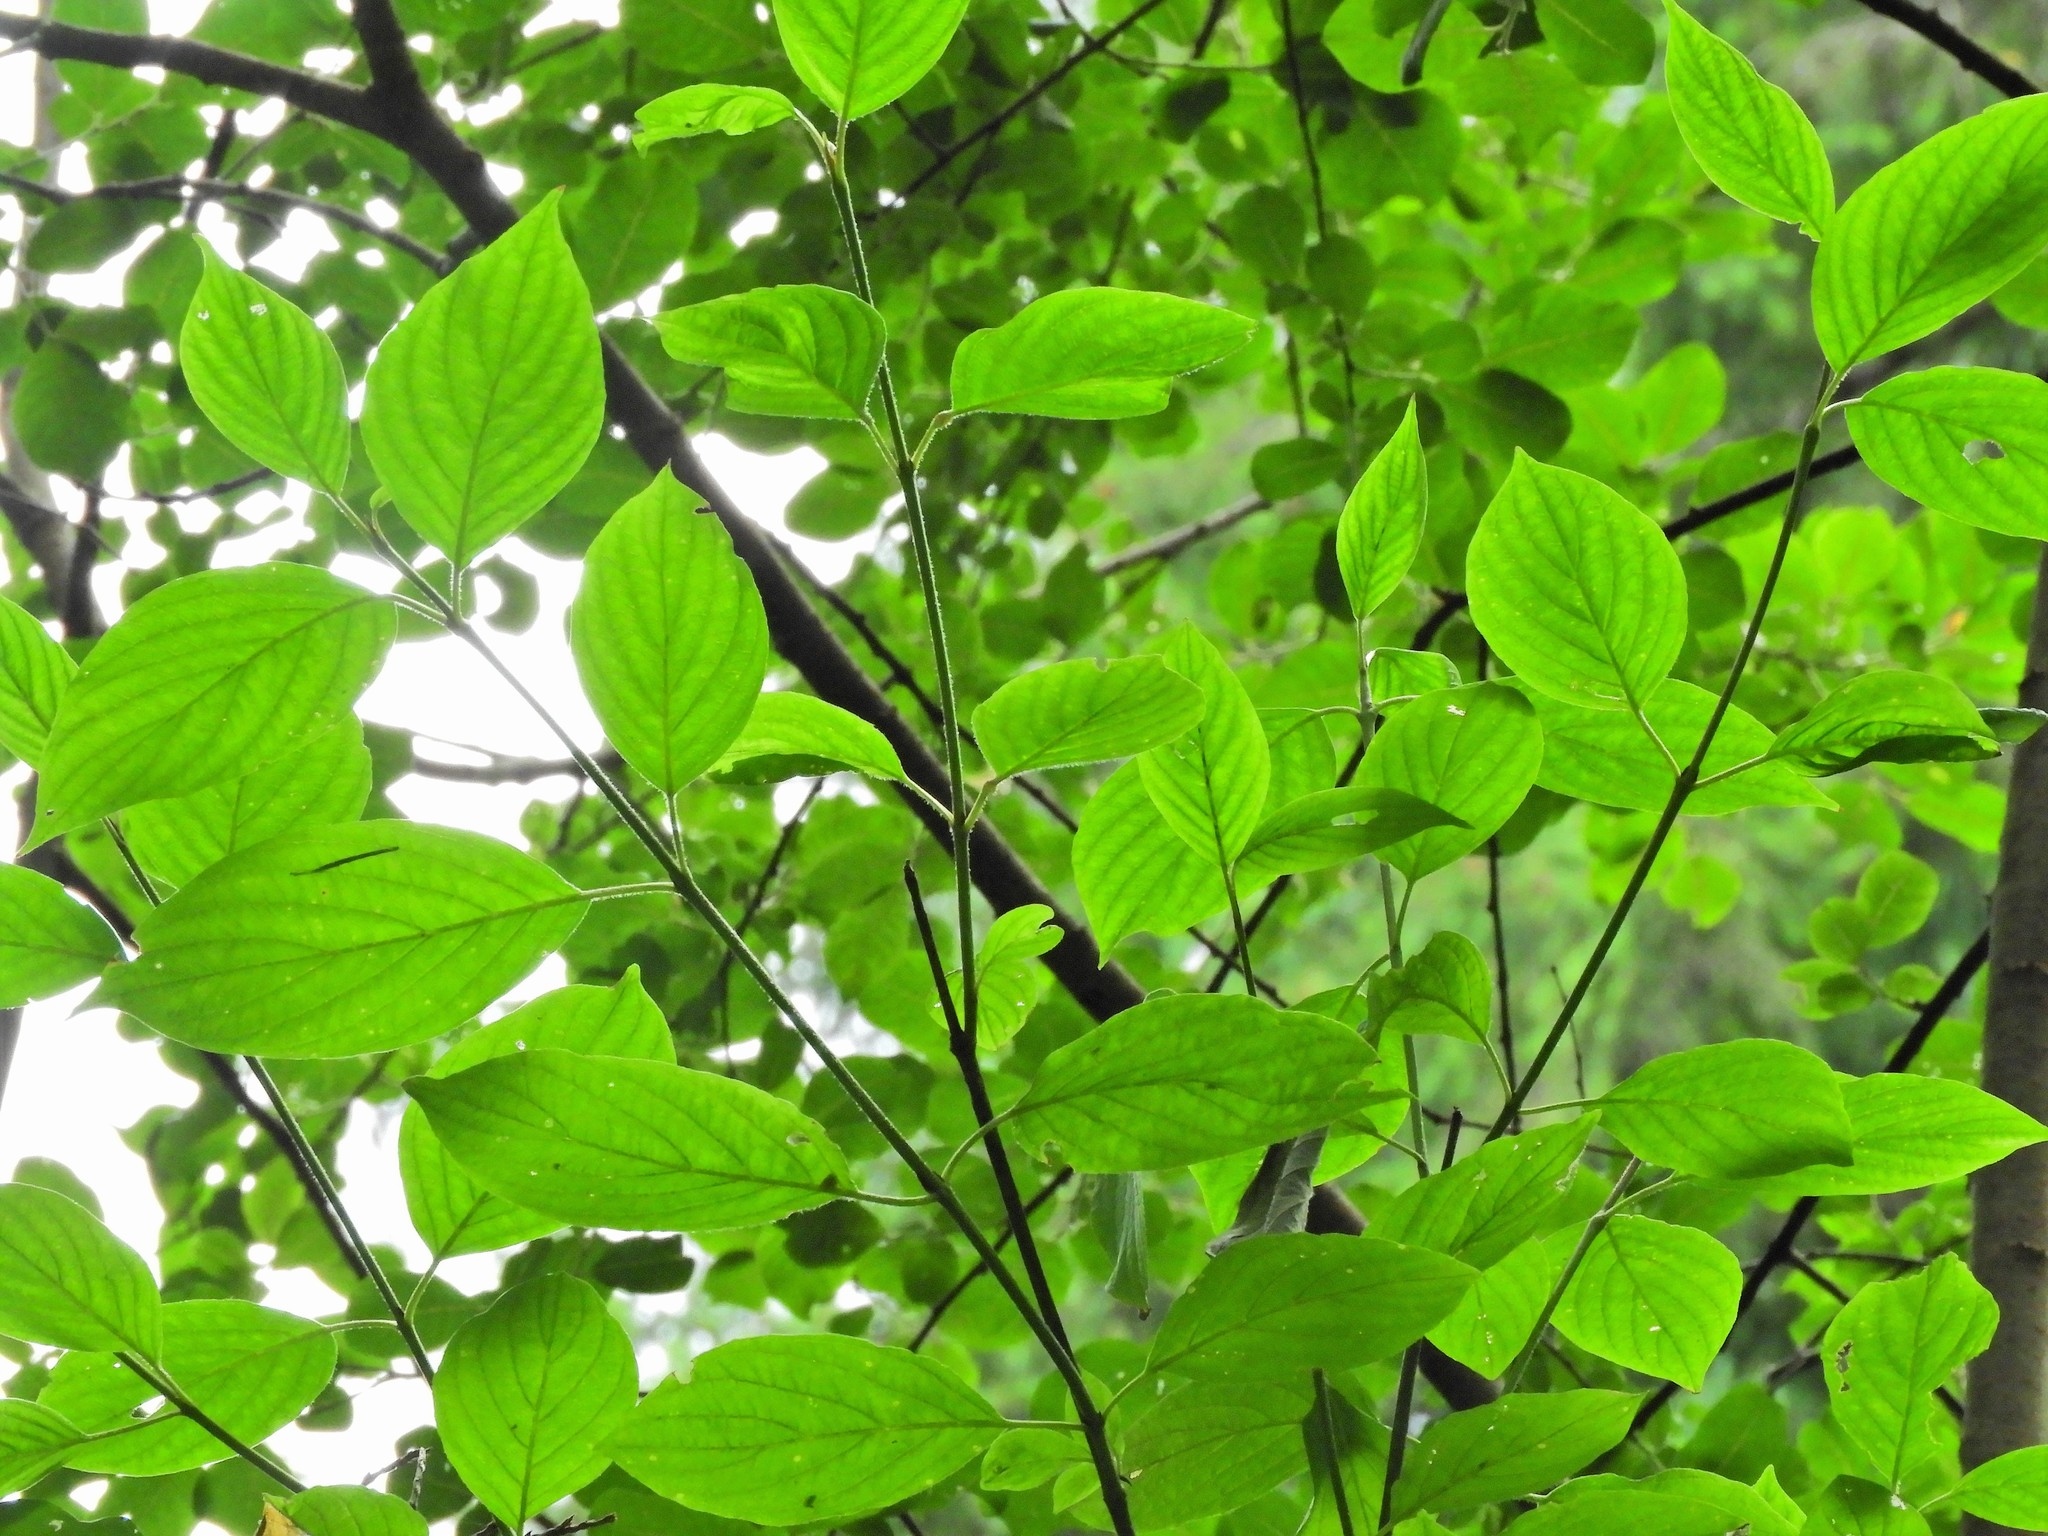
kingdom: Plantae
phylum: Tracheophyta
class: Magnoliopsida
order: Cornales
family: Cornaceae
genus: Cornus
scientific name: Cornus sericea
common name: Red-osier dogwood
